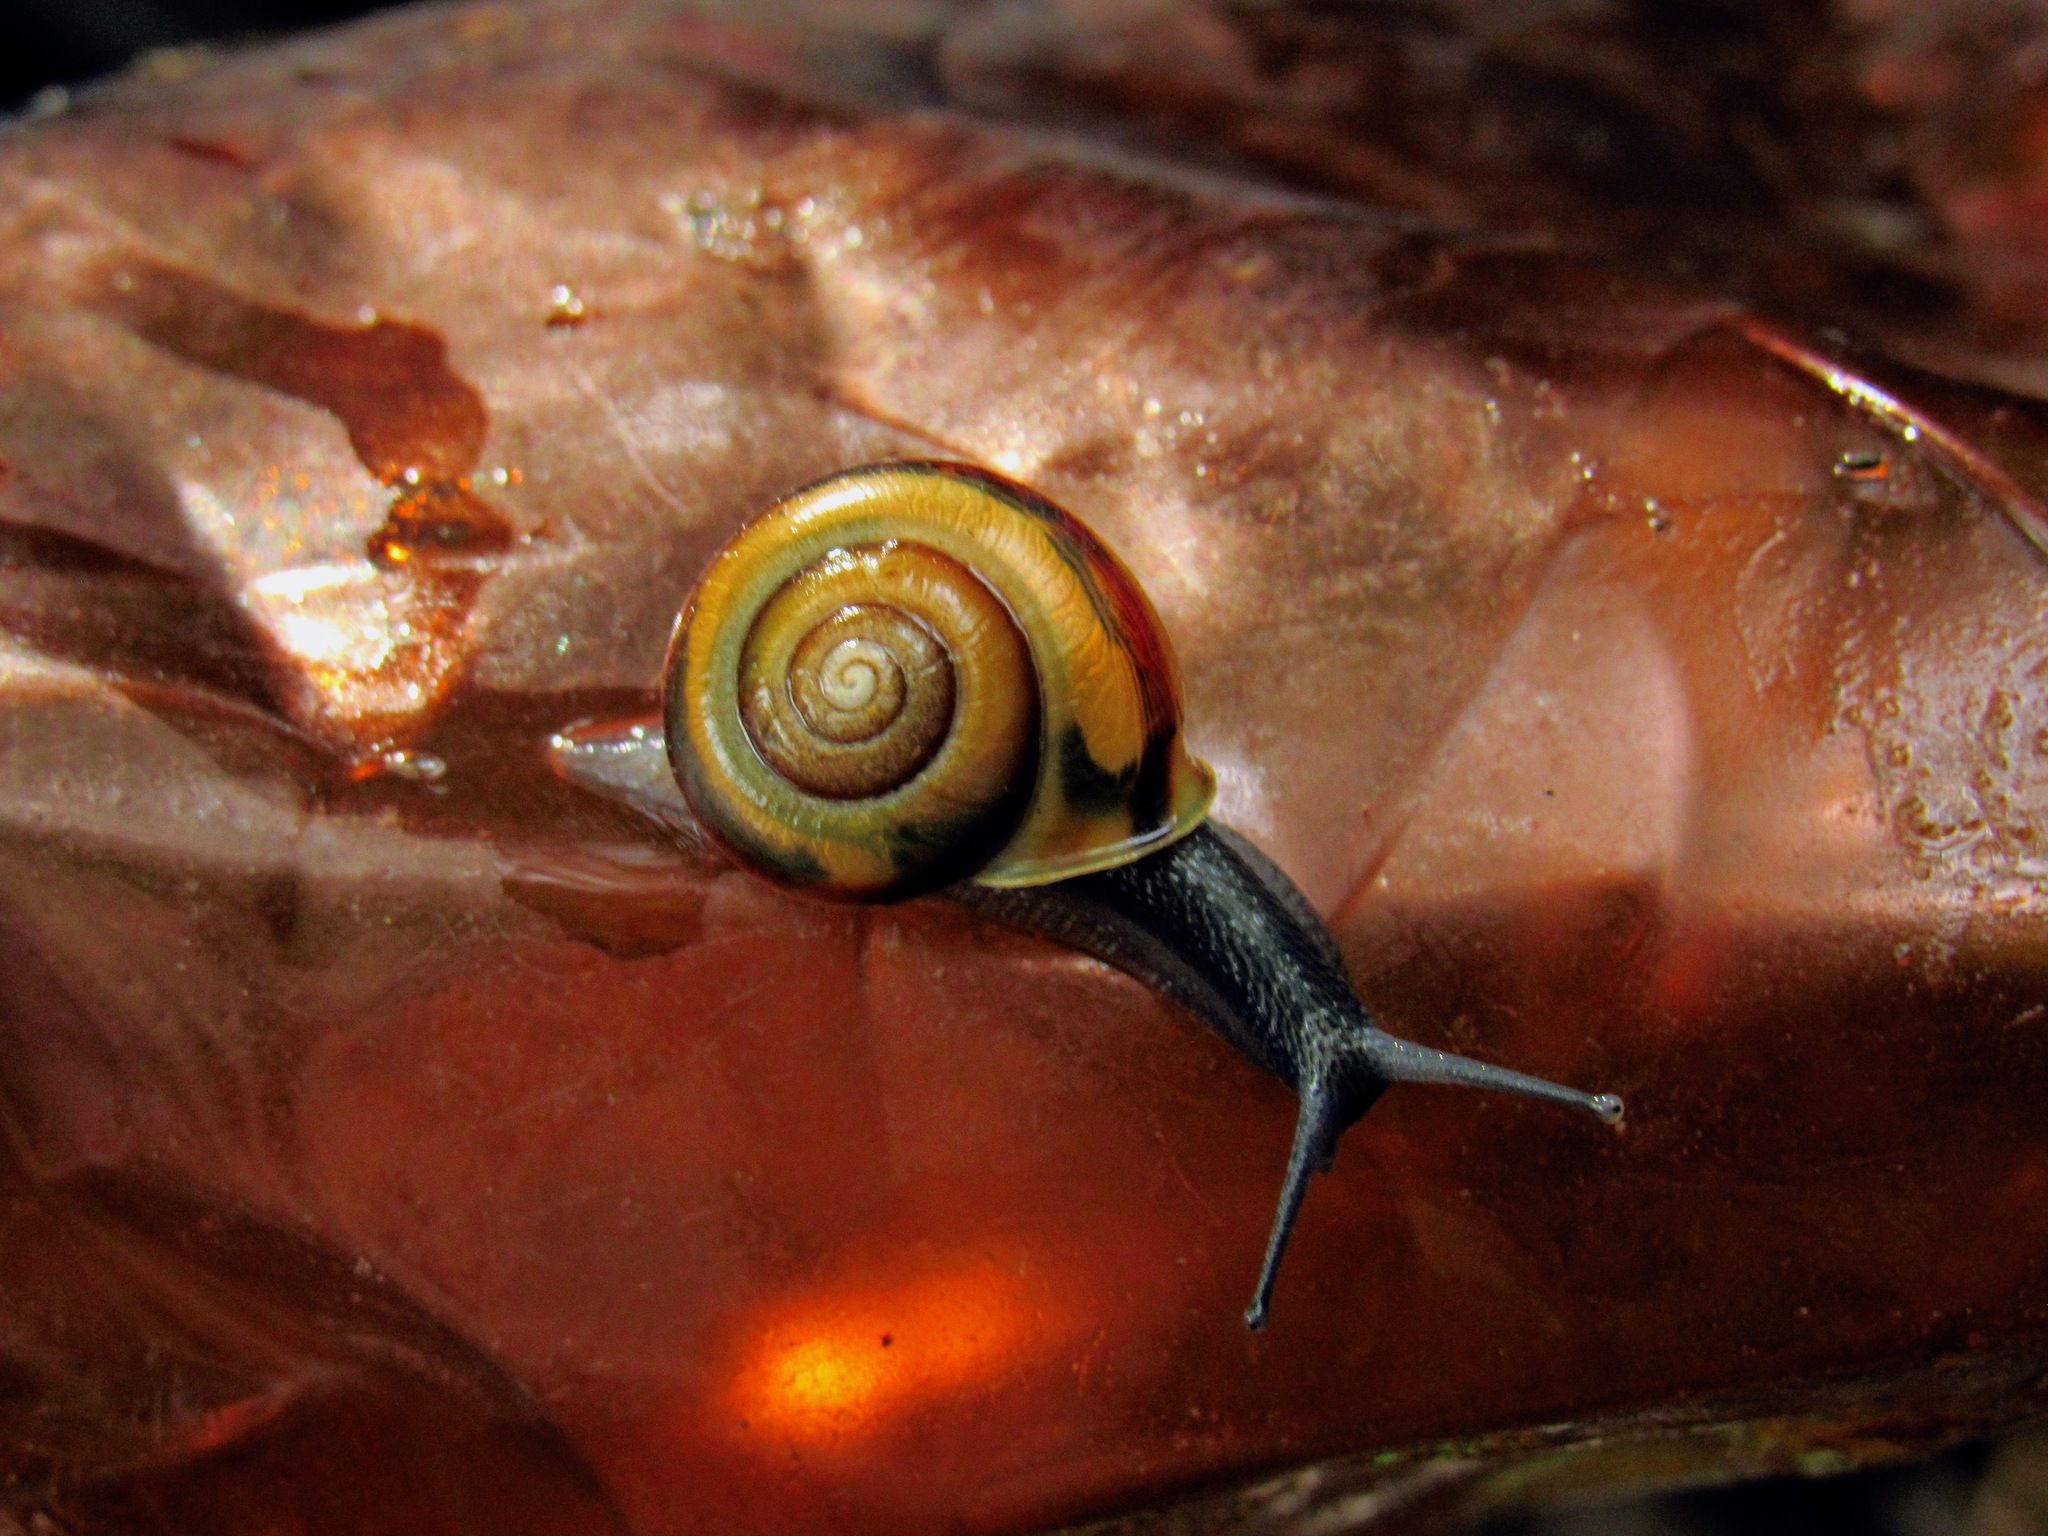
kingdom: Animalia
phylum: Mollusca
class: Gastropoda
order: Stylommatophora
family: Helicidae
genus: Faustina
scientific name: Faustina faustina
